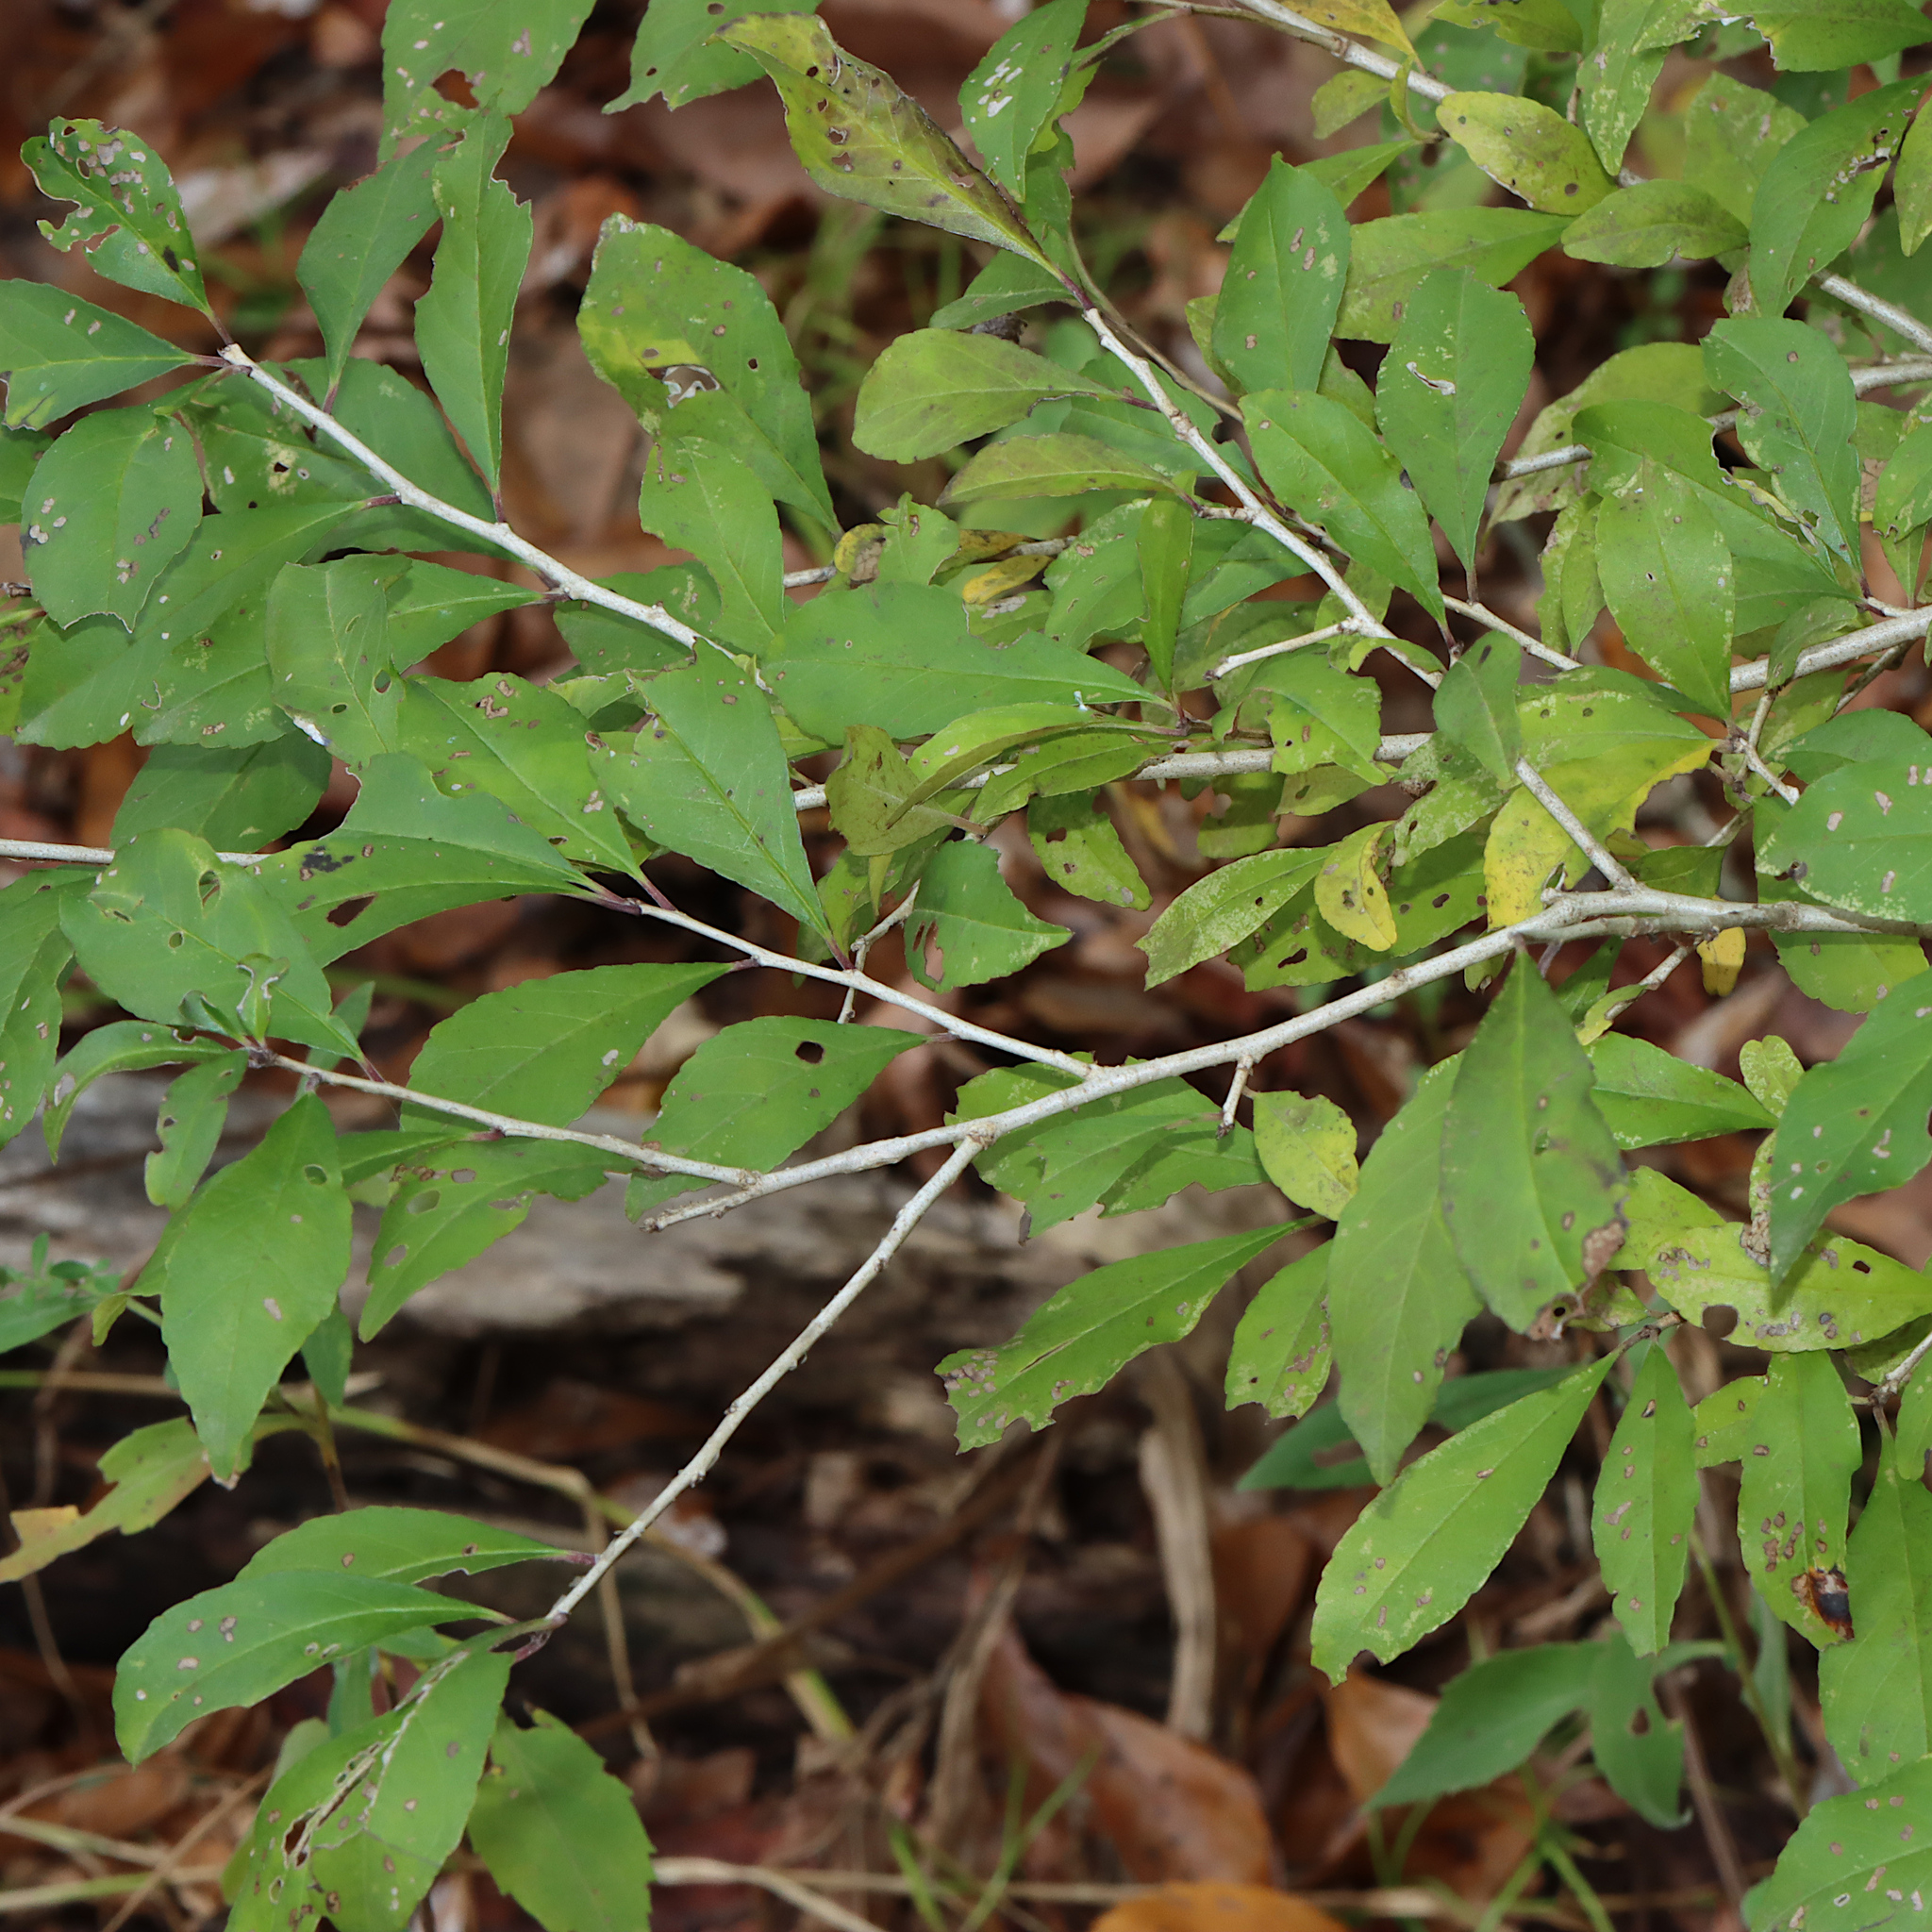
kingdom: Plantae
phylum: Tracheophyta
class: Magnoliopsida
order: Aquifoliales
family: Aquifoliaceae
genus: Ilex
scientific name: Ilex decidua
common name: Possum-haw
